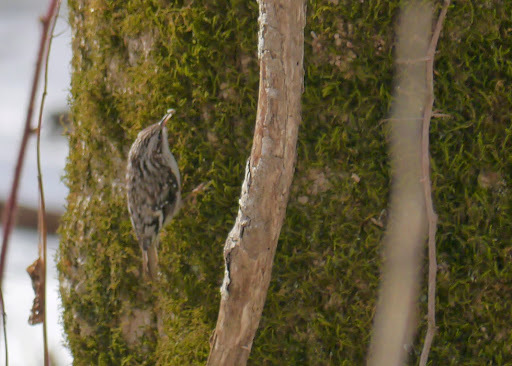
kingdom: Animalia
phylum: Chordata
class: Aves
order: Passeriformes
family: Certhiidae
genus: Certhia
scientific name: Certhia americana
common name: Brown creeper
